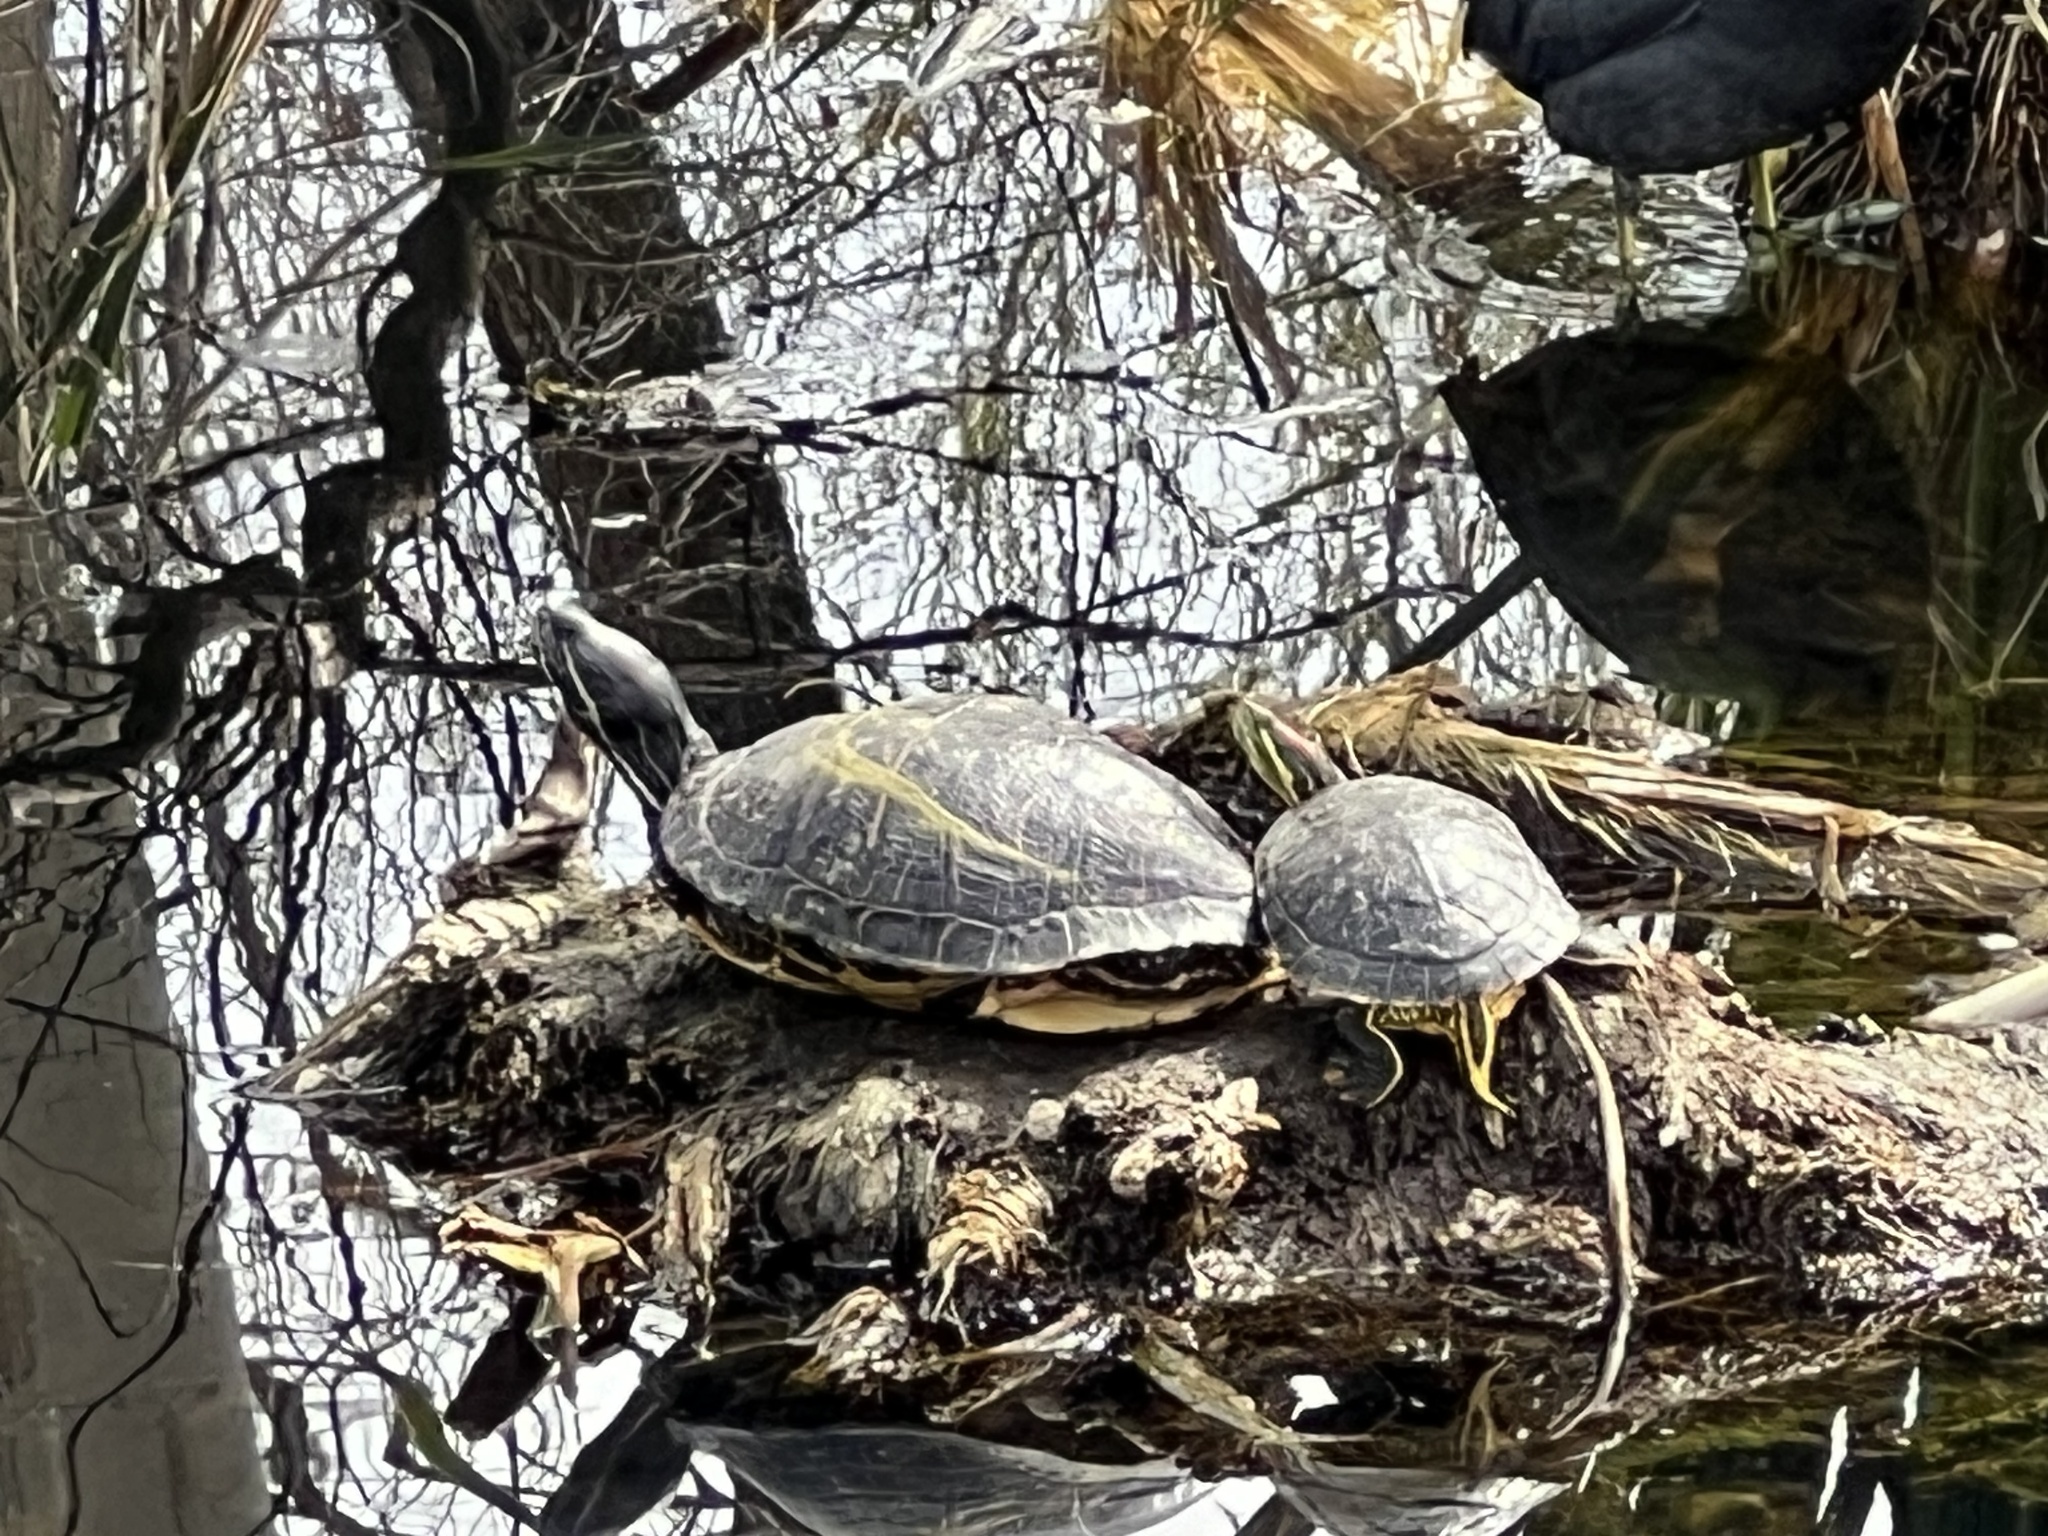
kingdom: Animalia
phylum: Chordata
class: Testudines
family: Emydidae
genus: Trachemys
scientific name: Trachemys scripta
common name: Slider
